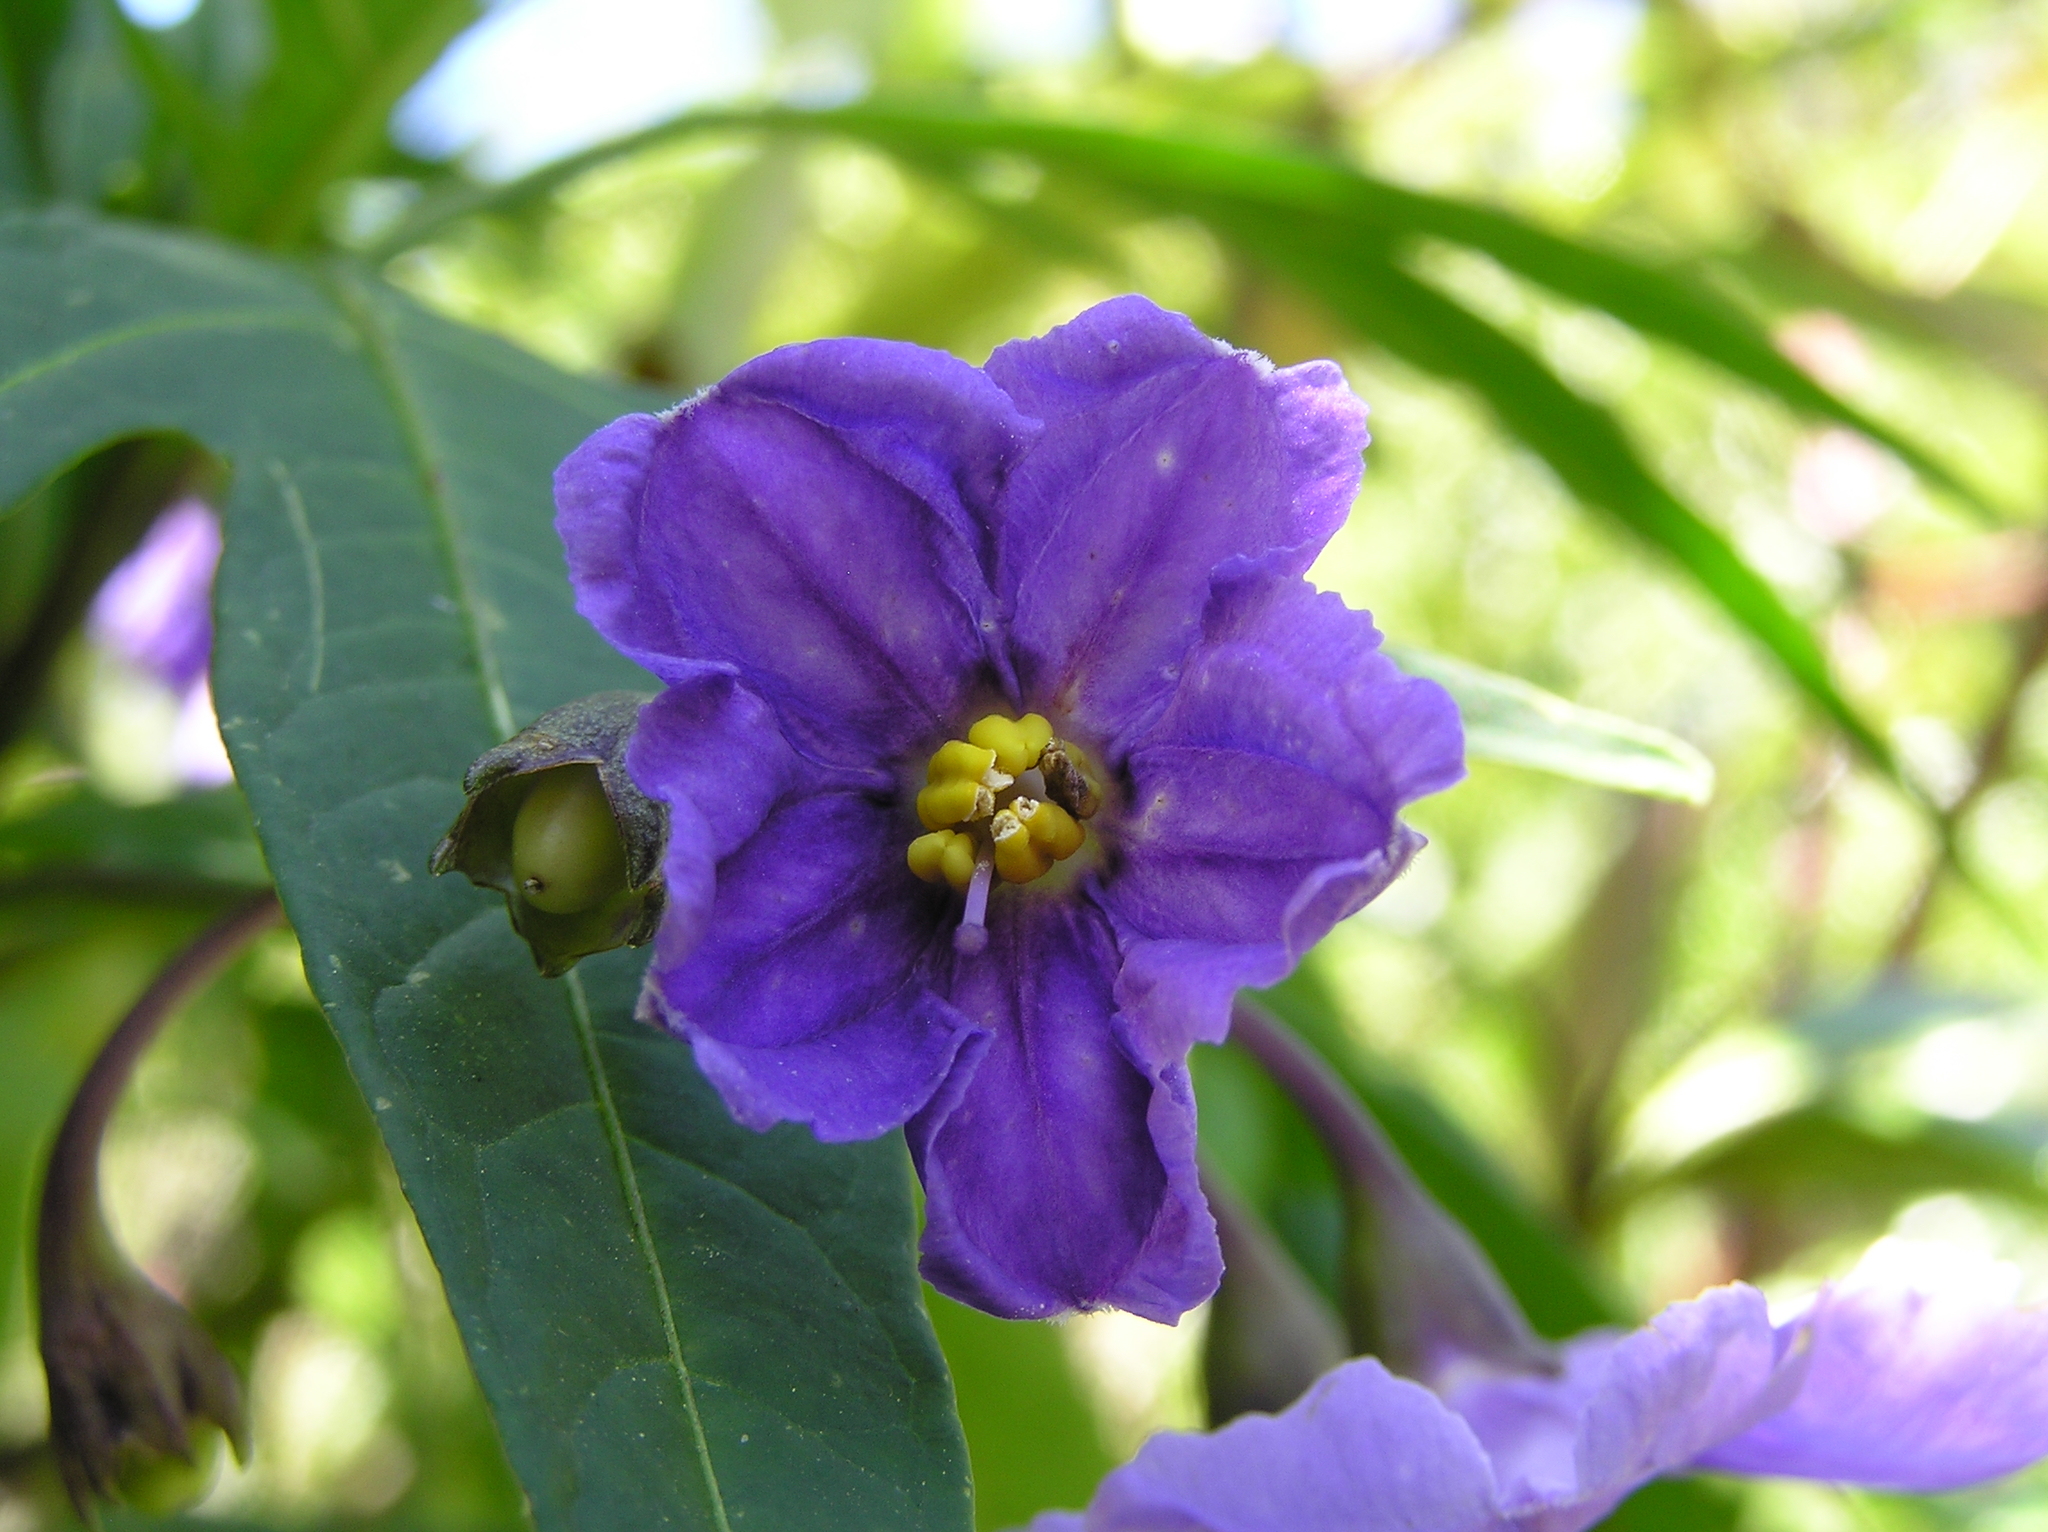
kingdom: Plantae
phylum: Tracheophyta
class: Magnoliopsida
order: Solanales
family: Solanaceae
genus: Solanum
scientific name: Solanum laciniatum
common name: Kangaroo-apple
